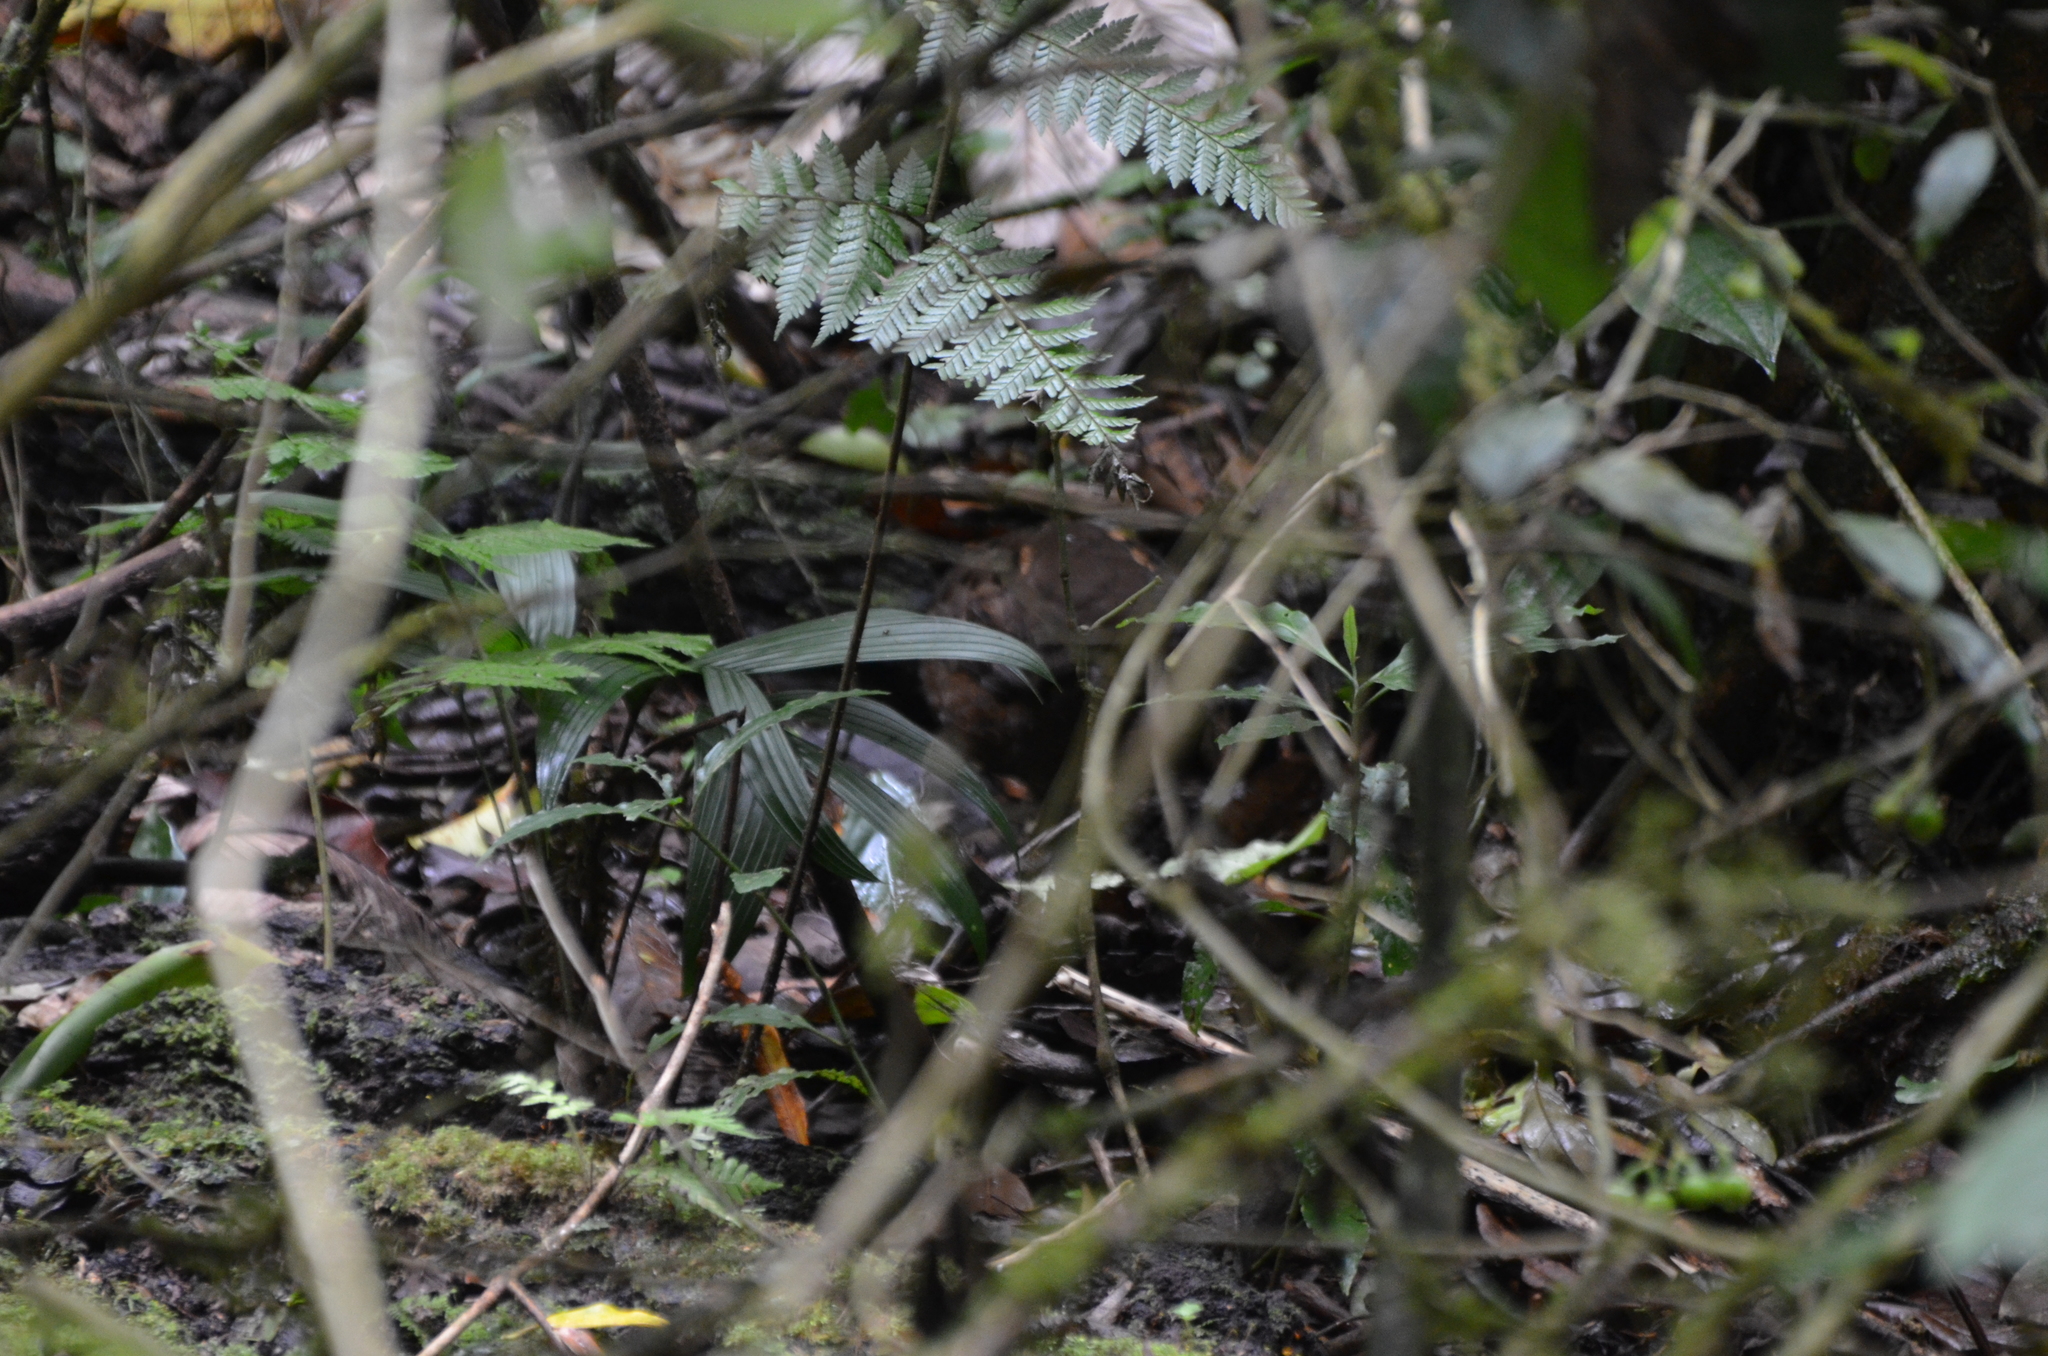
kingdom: Animalia
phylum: Chordata
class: Aves
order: Galliformes
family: Odontophoridae
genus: Odontophorus
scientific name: Odontophorus leucolaemus
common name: Black-breasted wood-quail
